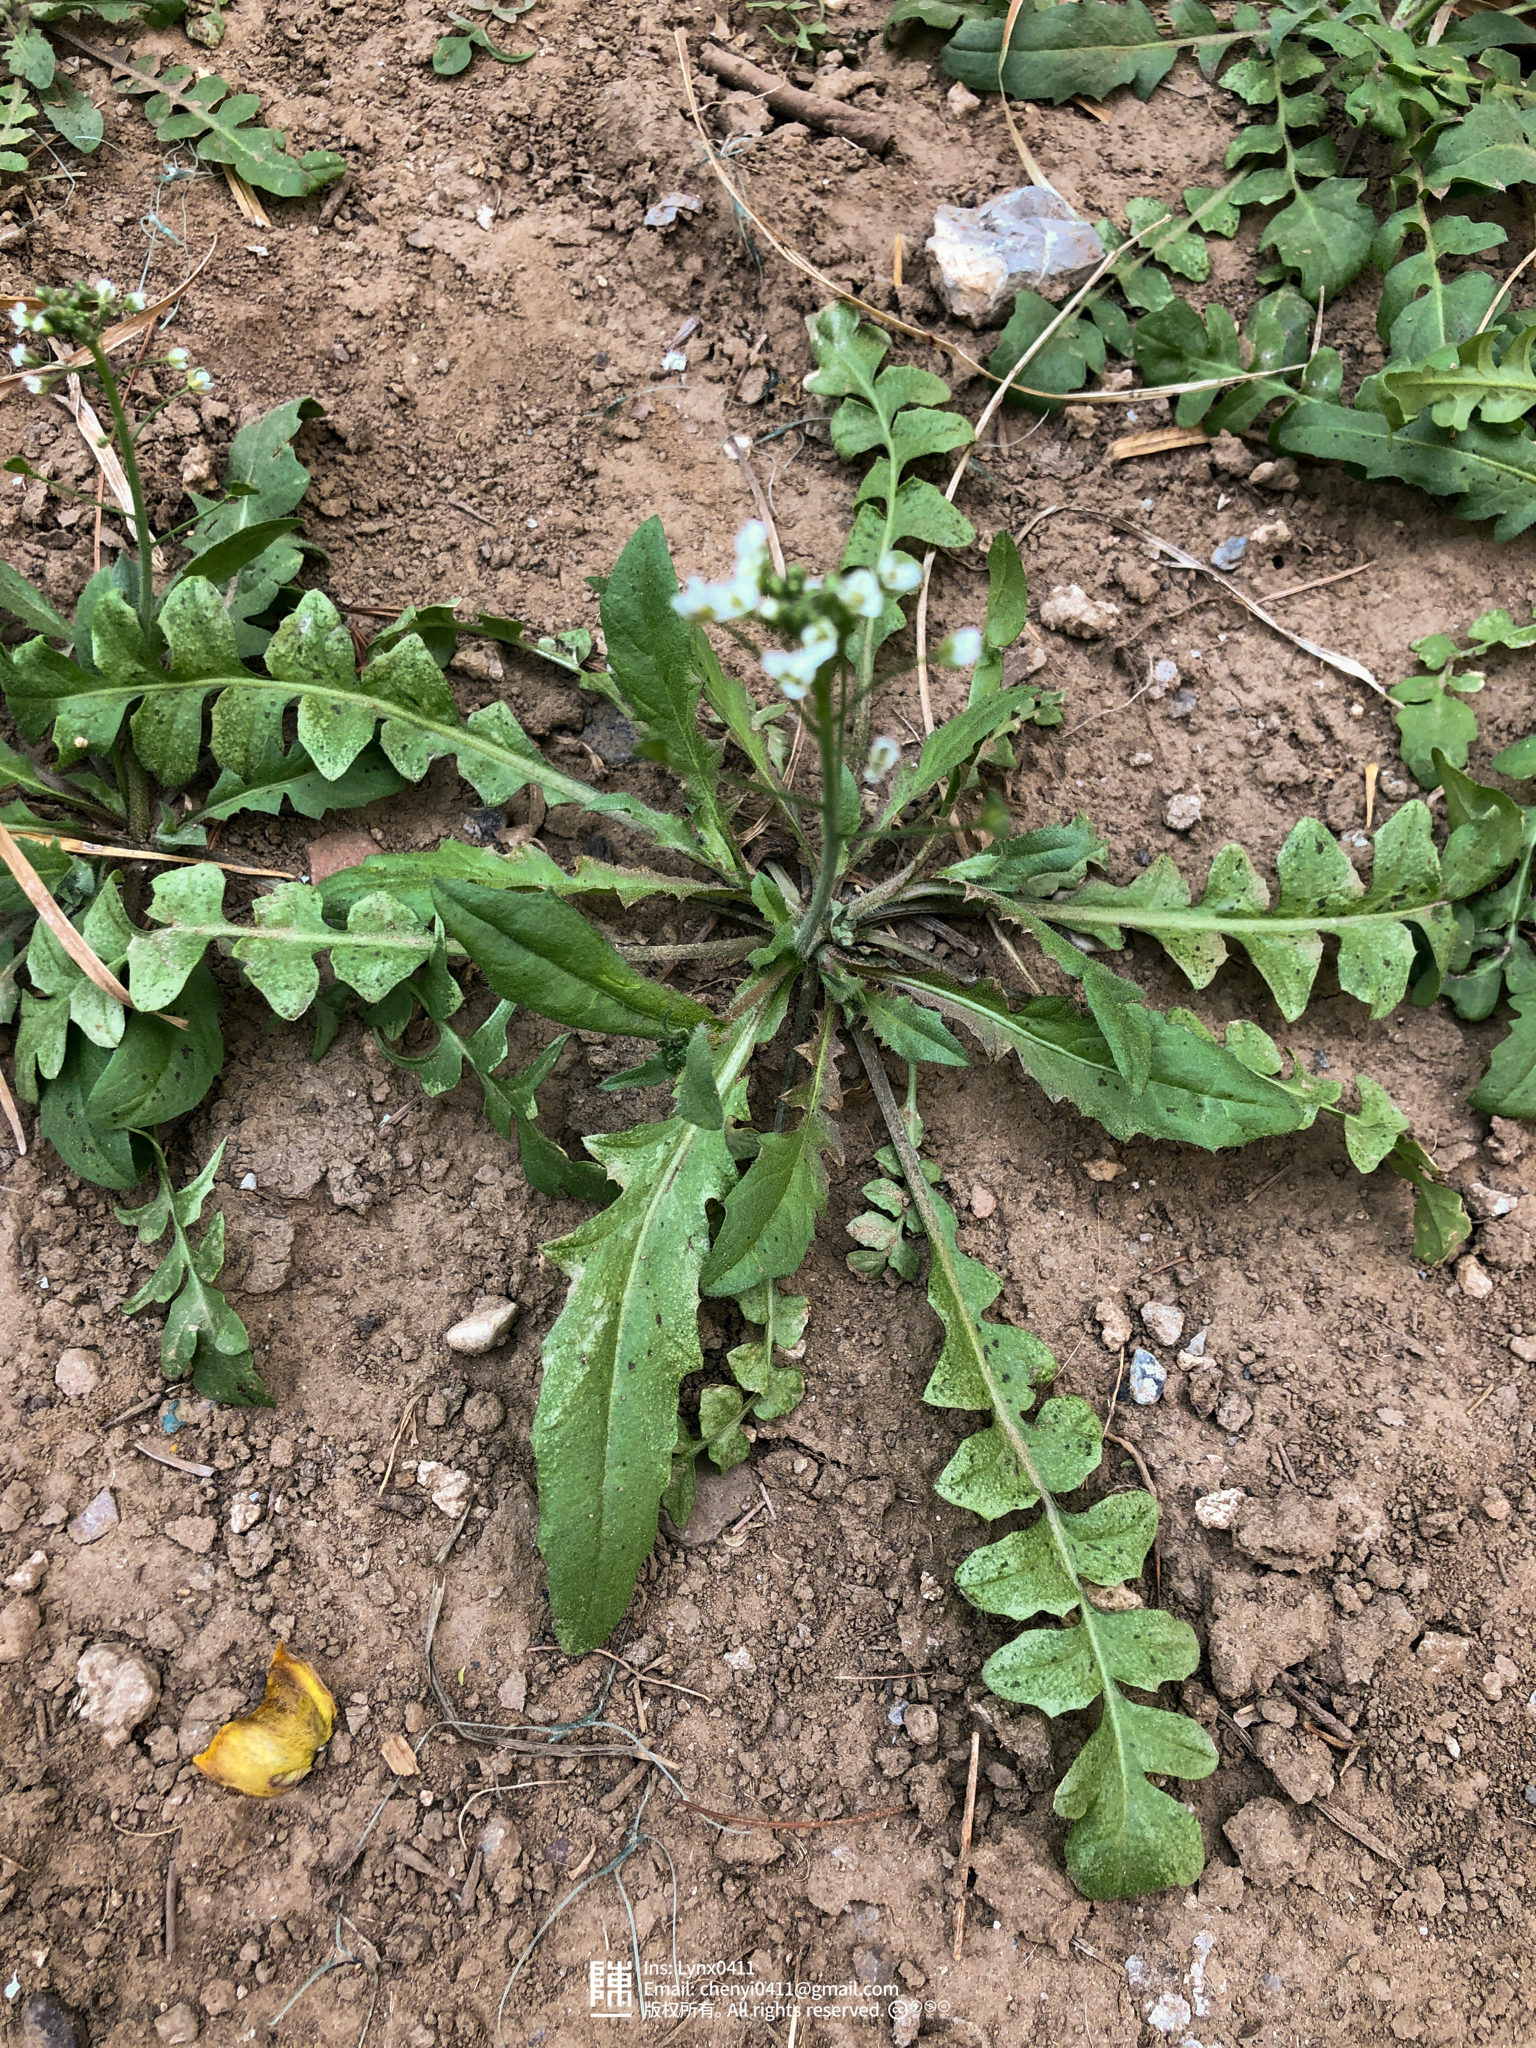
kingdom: Plantae
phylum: Tracheophyta
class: Magnoliopsida
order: Brassicales
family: Brassicaceae
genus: Capsella
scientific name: Capsella bursa-pastoris
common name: Shepherd's purse
